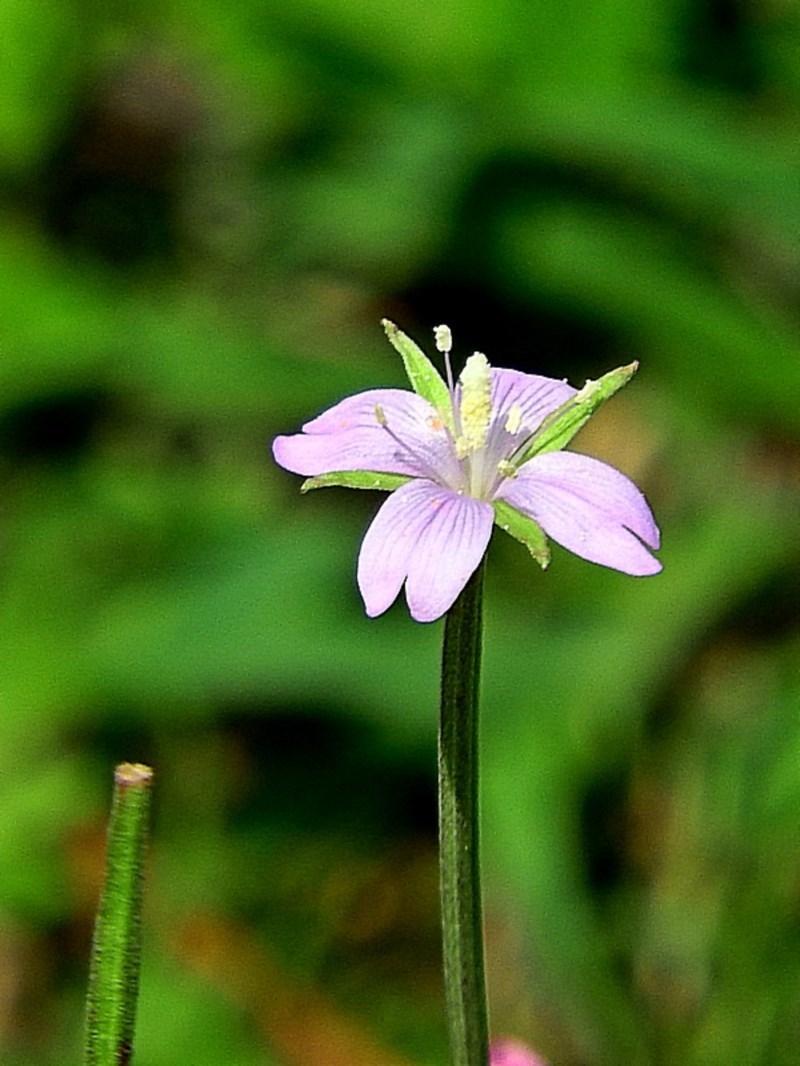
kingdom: Plantae
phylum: Tracheophyta
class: Magnoliopsida
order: Myrtales
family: Onagraceae
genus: Epilobium
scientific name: Epilobium billardierianum
